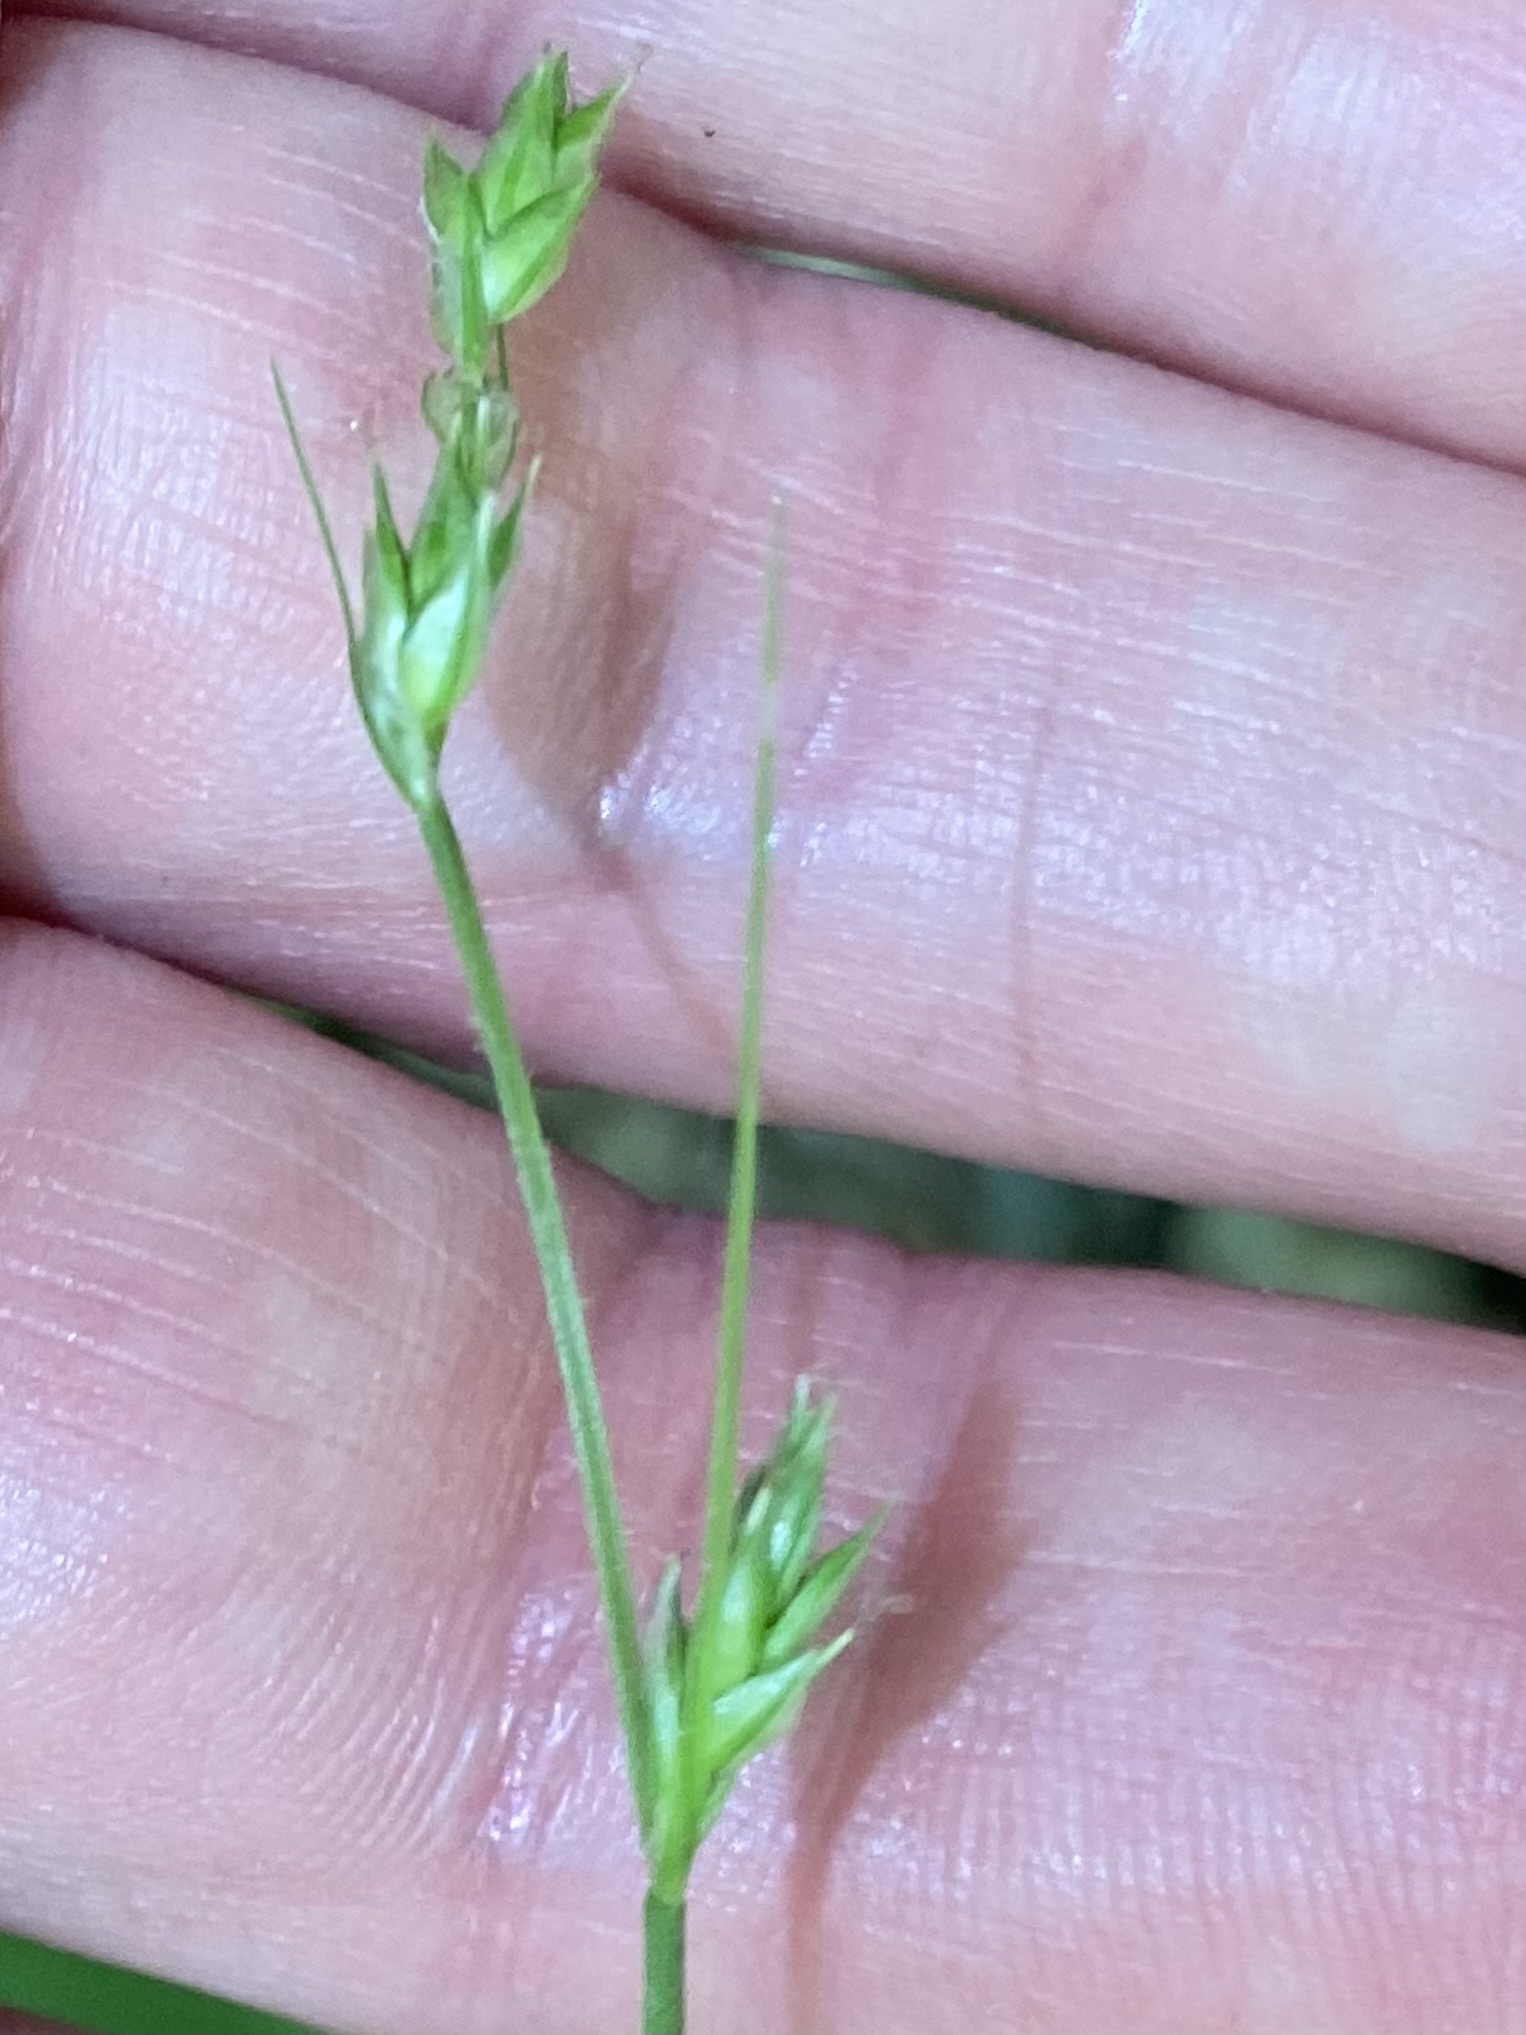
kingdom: Plantae
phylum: Tracheophyta
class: Liliopsida
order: Poales
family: Cyperaceae
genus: Carex
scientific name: Carex deweyana
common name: Dewey's sedge
